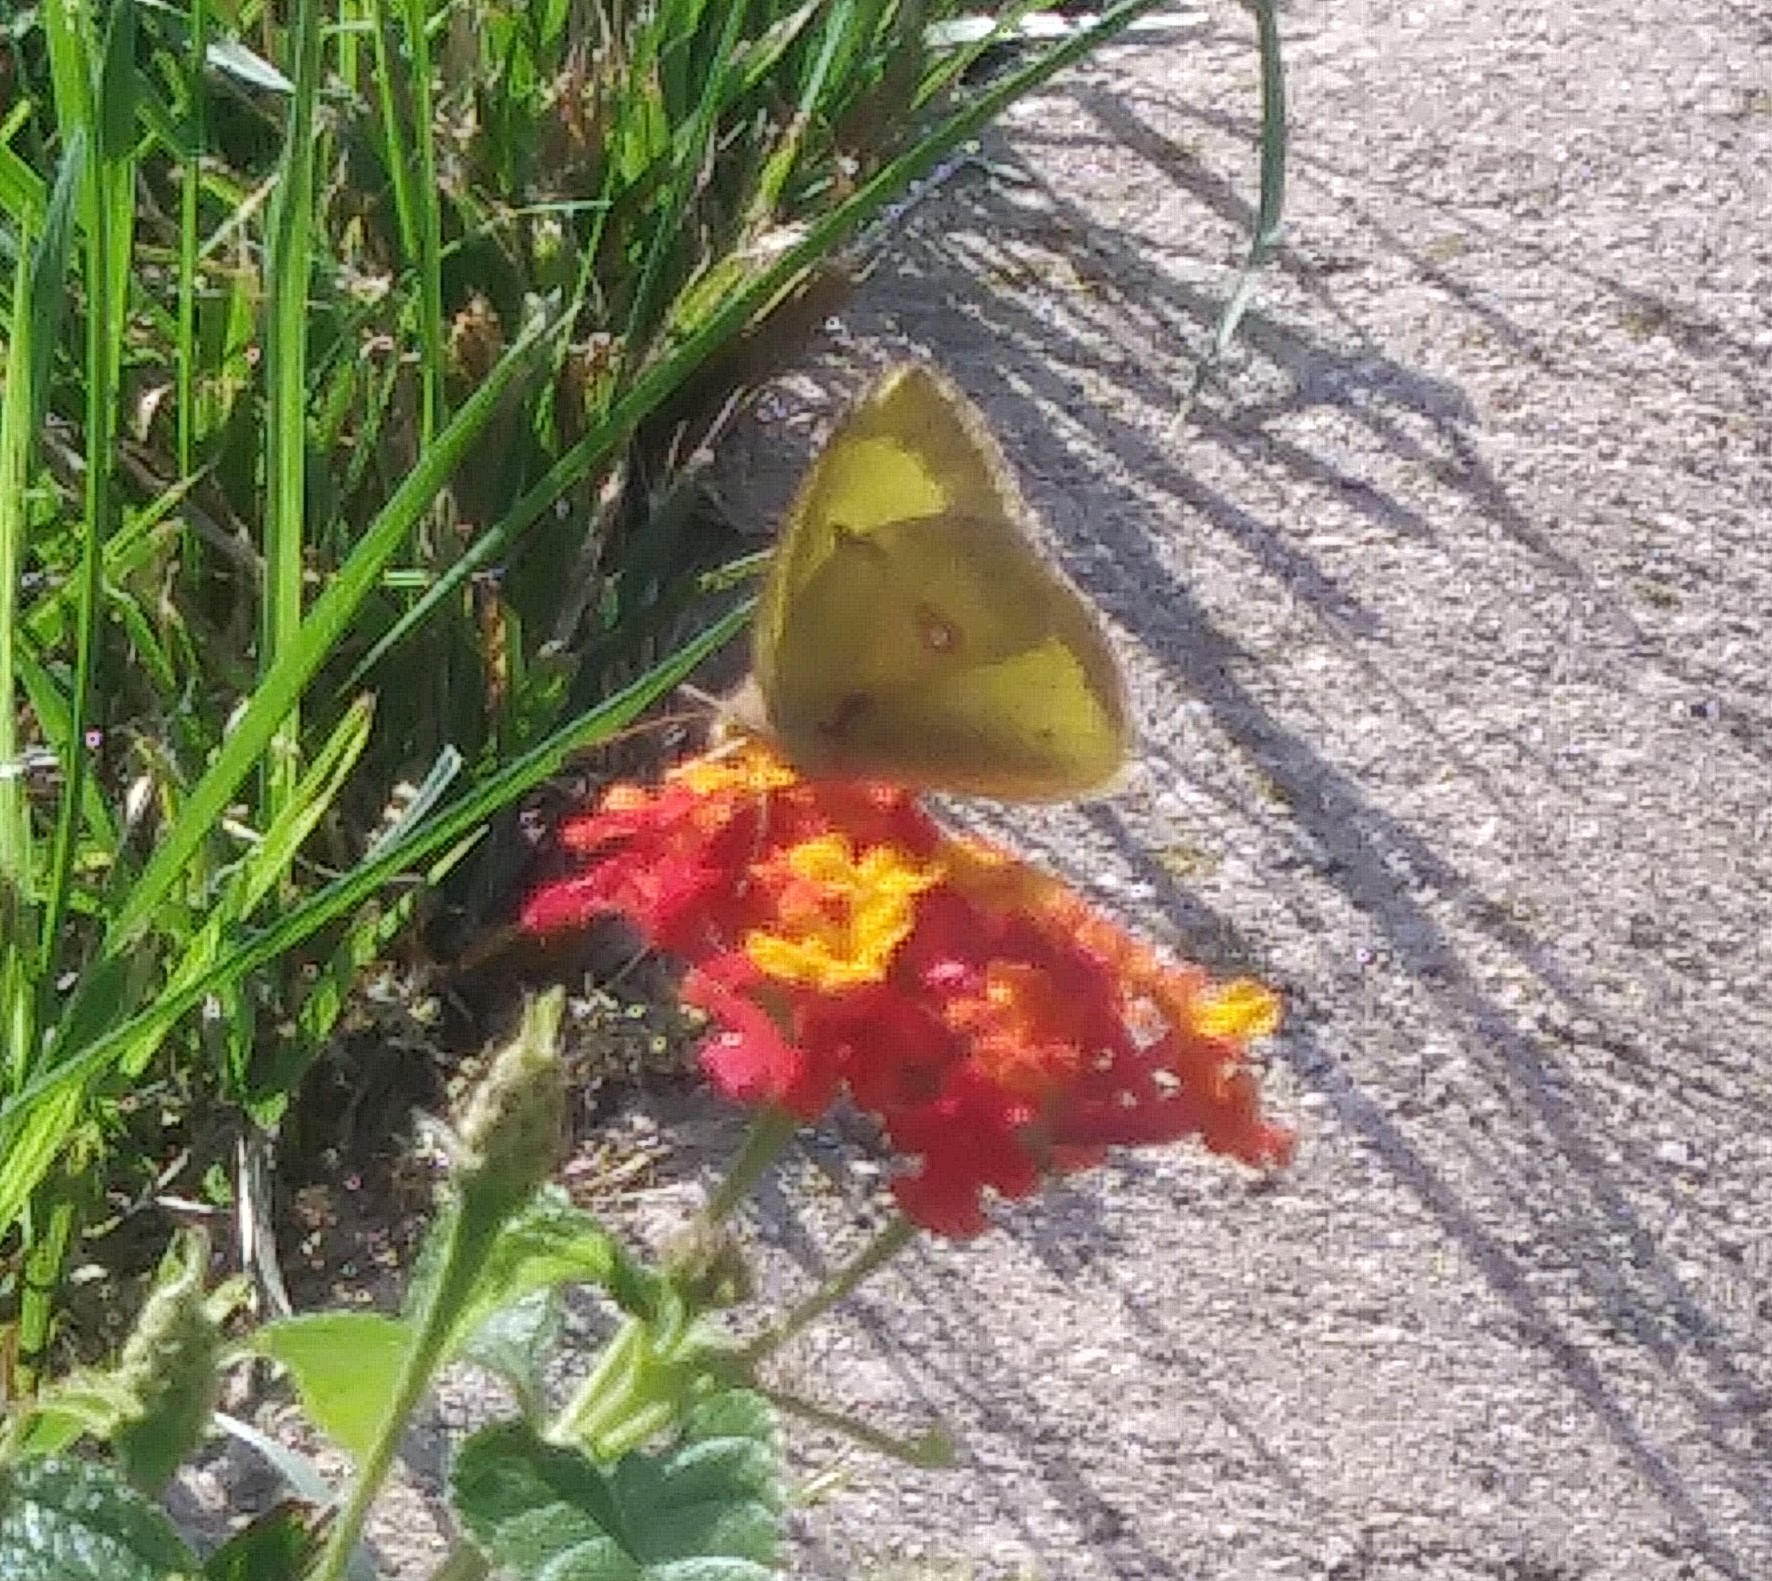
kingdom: Animalia
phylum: Arthropoda
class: Insecta
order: Lepidoptera
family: Pieridae
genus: Colias
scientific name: Colias philodice
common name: Clouded sulphur
